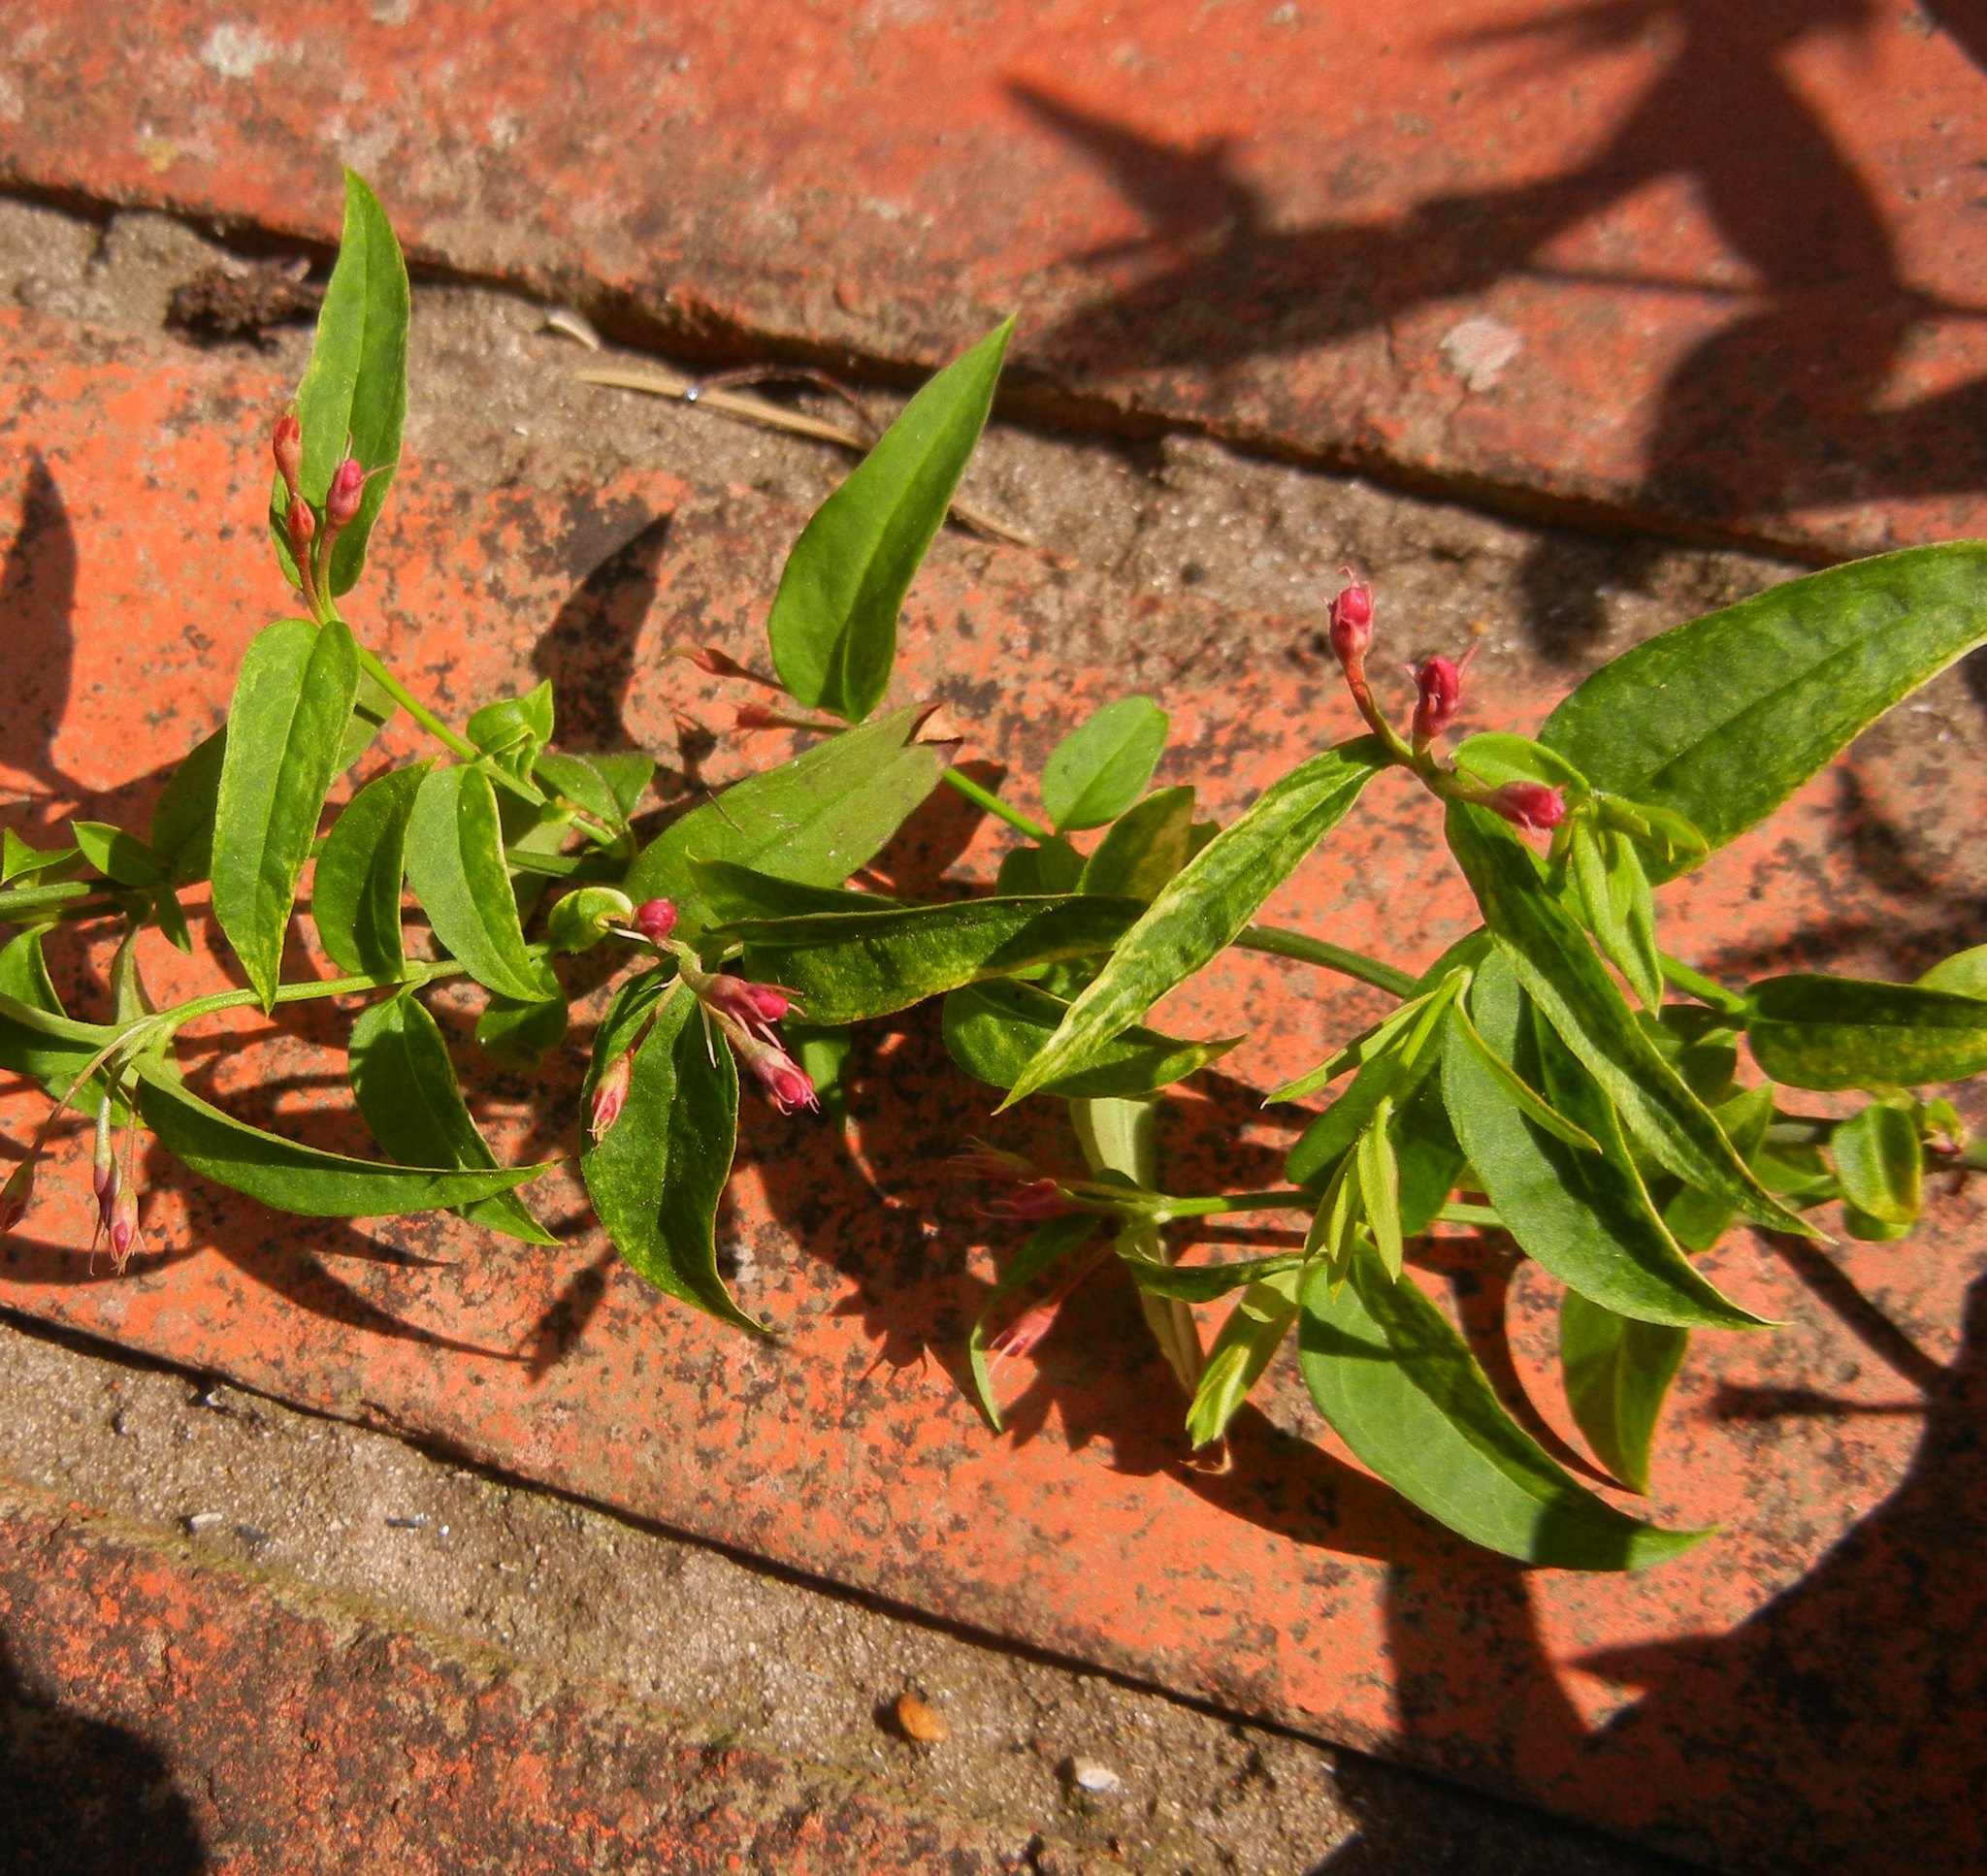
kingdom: Plantae
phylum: Tracheophyta
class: Magnoliopsida
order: Lamiales
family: Oleaceae
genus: Jasminum
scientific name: Jasminum beesianum
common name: Red jasmine
